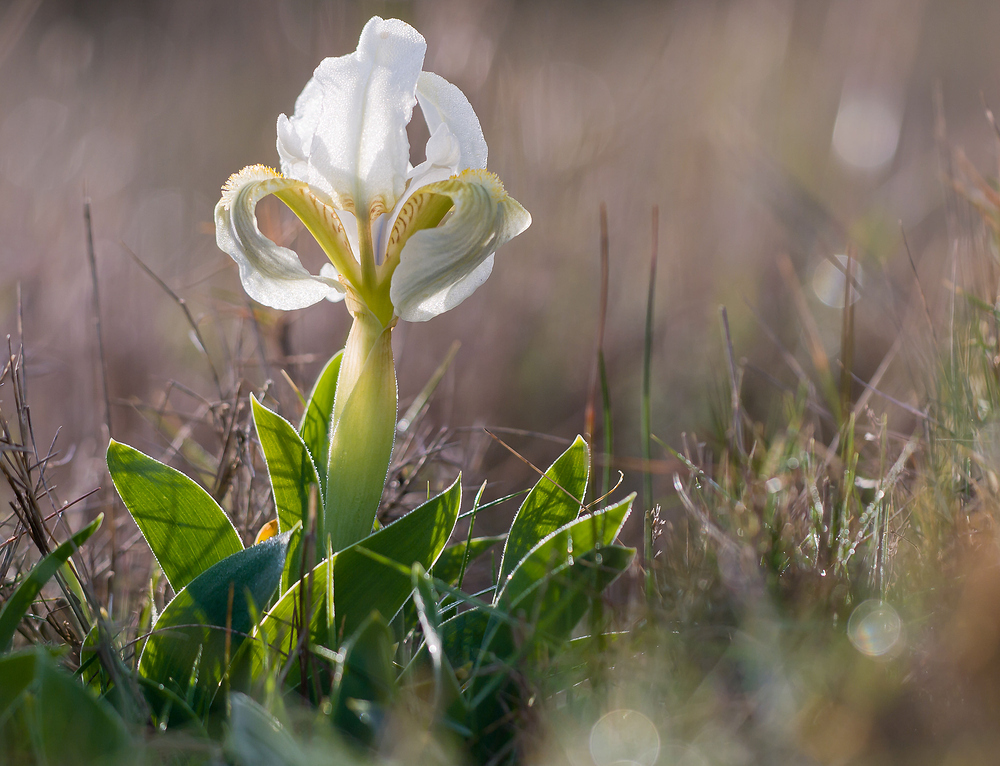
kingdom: Plantae
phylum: Tracheophyta
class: Liliopsida
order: Asparagales
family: Iridaceae
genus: Iris
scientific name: Iris lutescens
